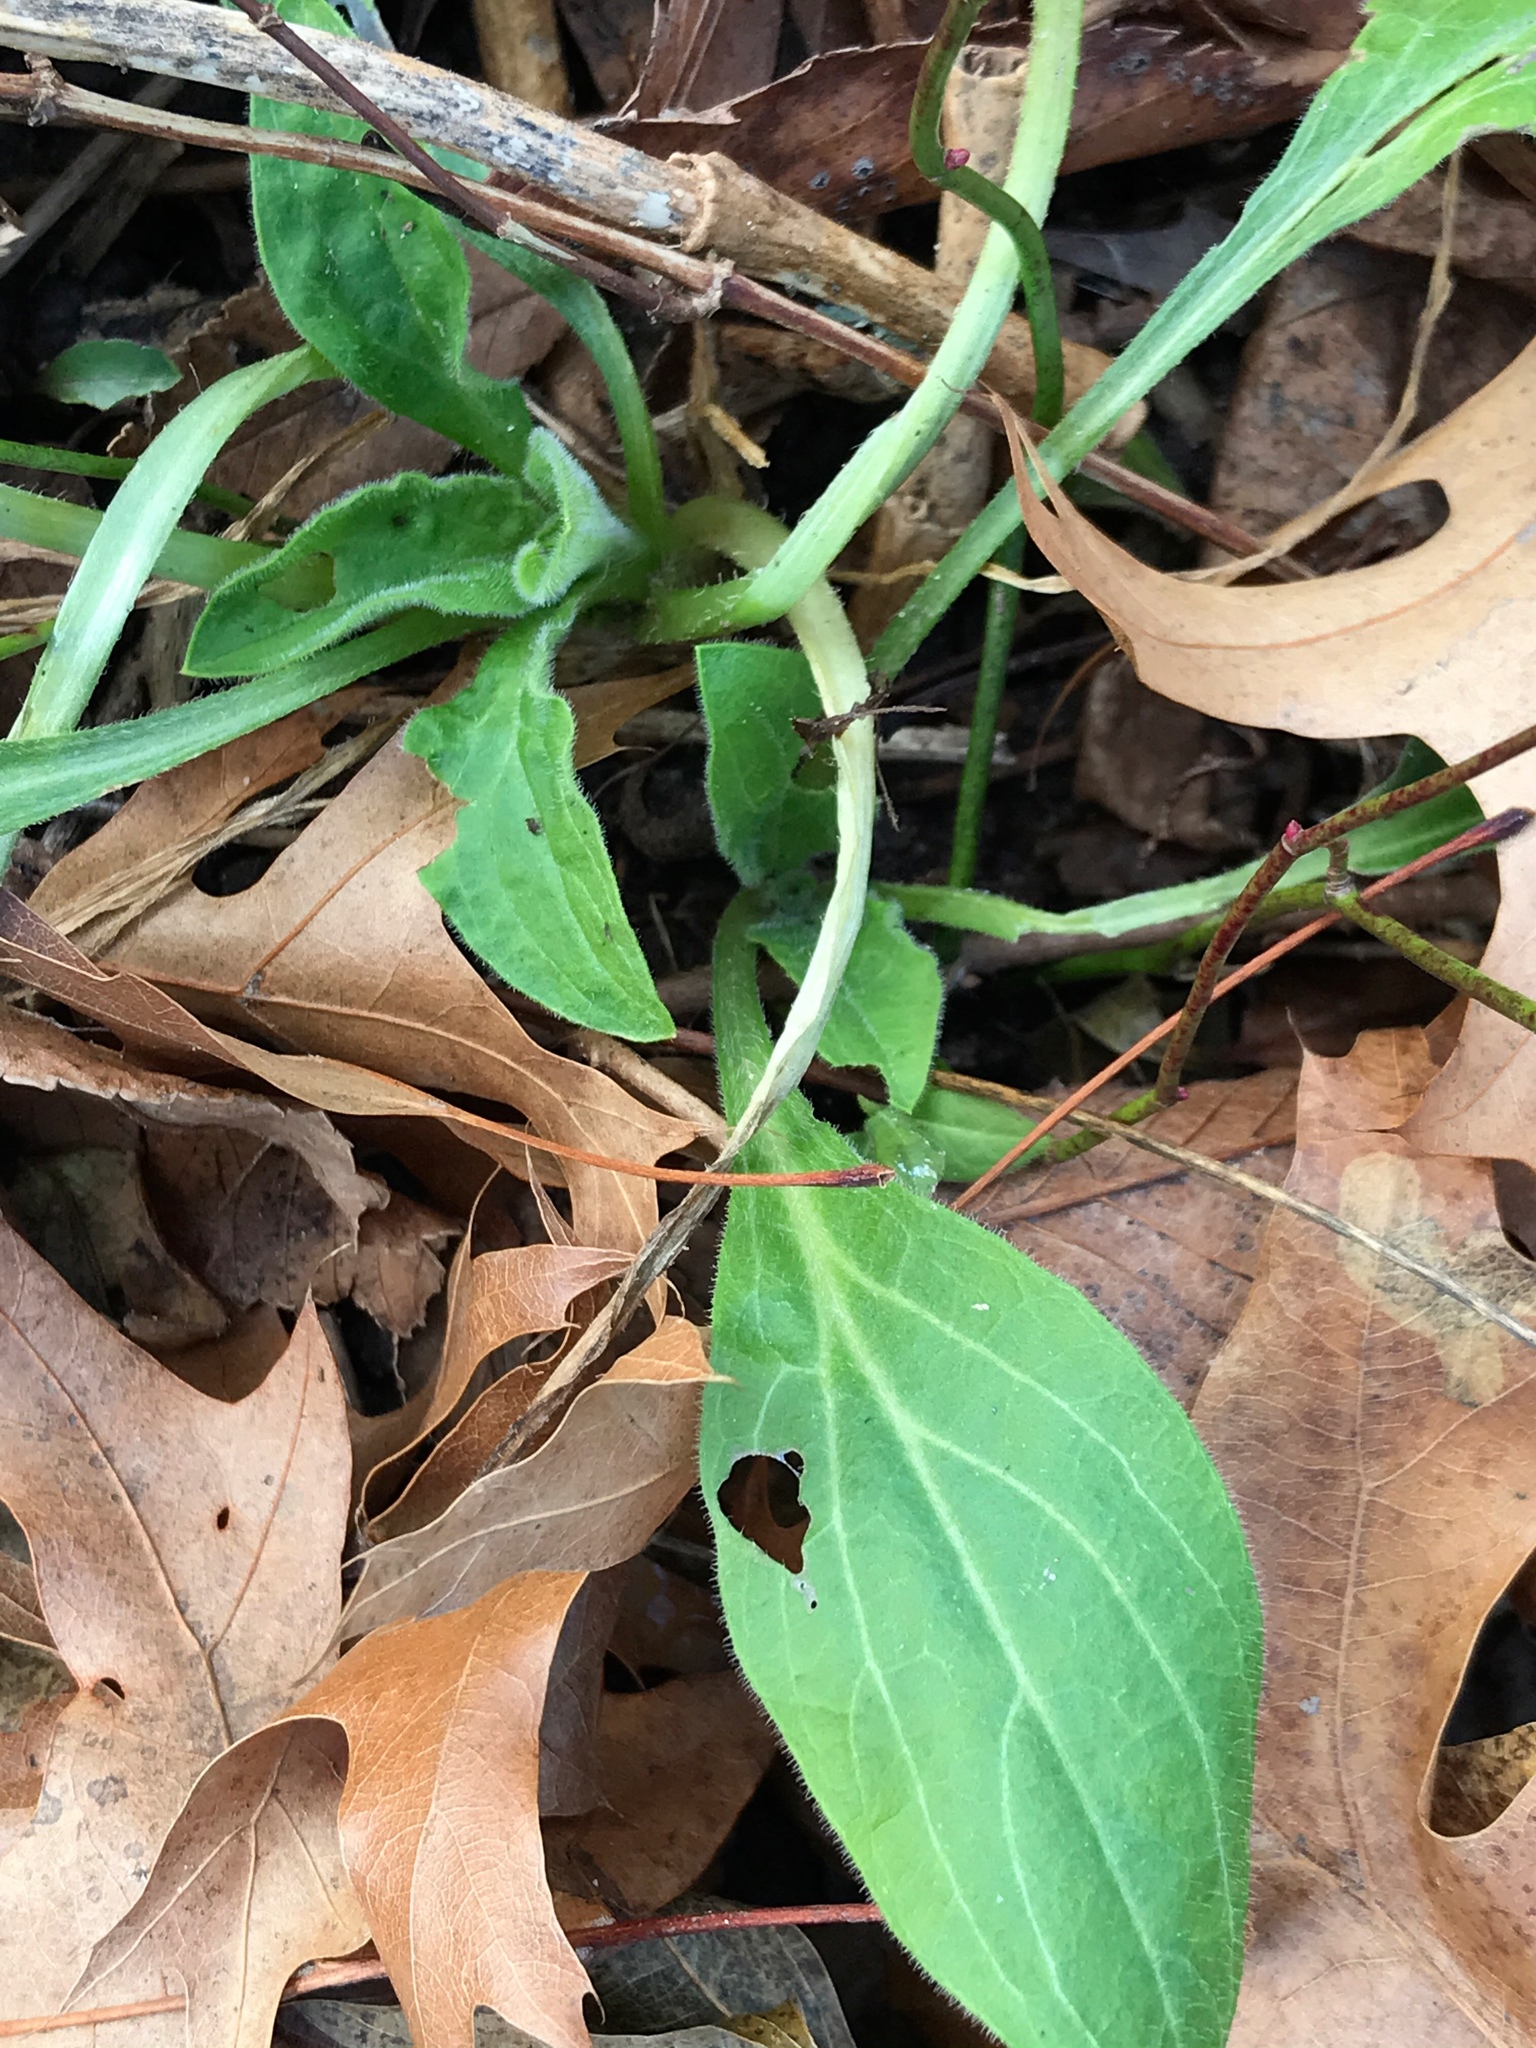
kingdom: Plantae
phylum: Tracheophyta
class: Magnoliopsida
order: Caryophyllales
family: Caryophyllaceae
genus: Silene
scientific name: Silene latifolia
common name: White campion
